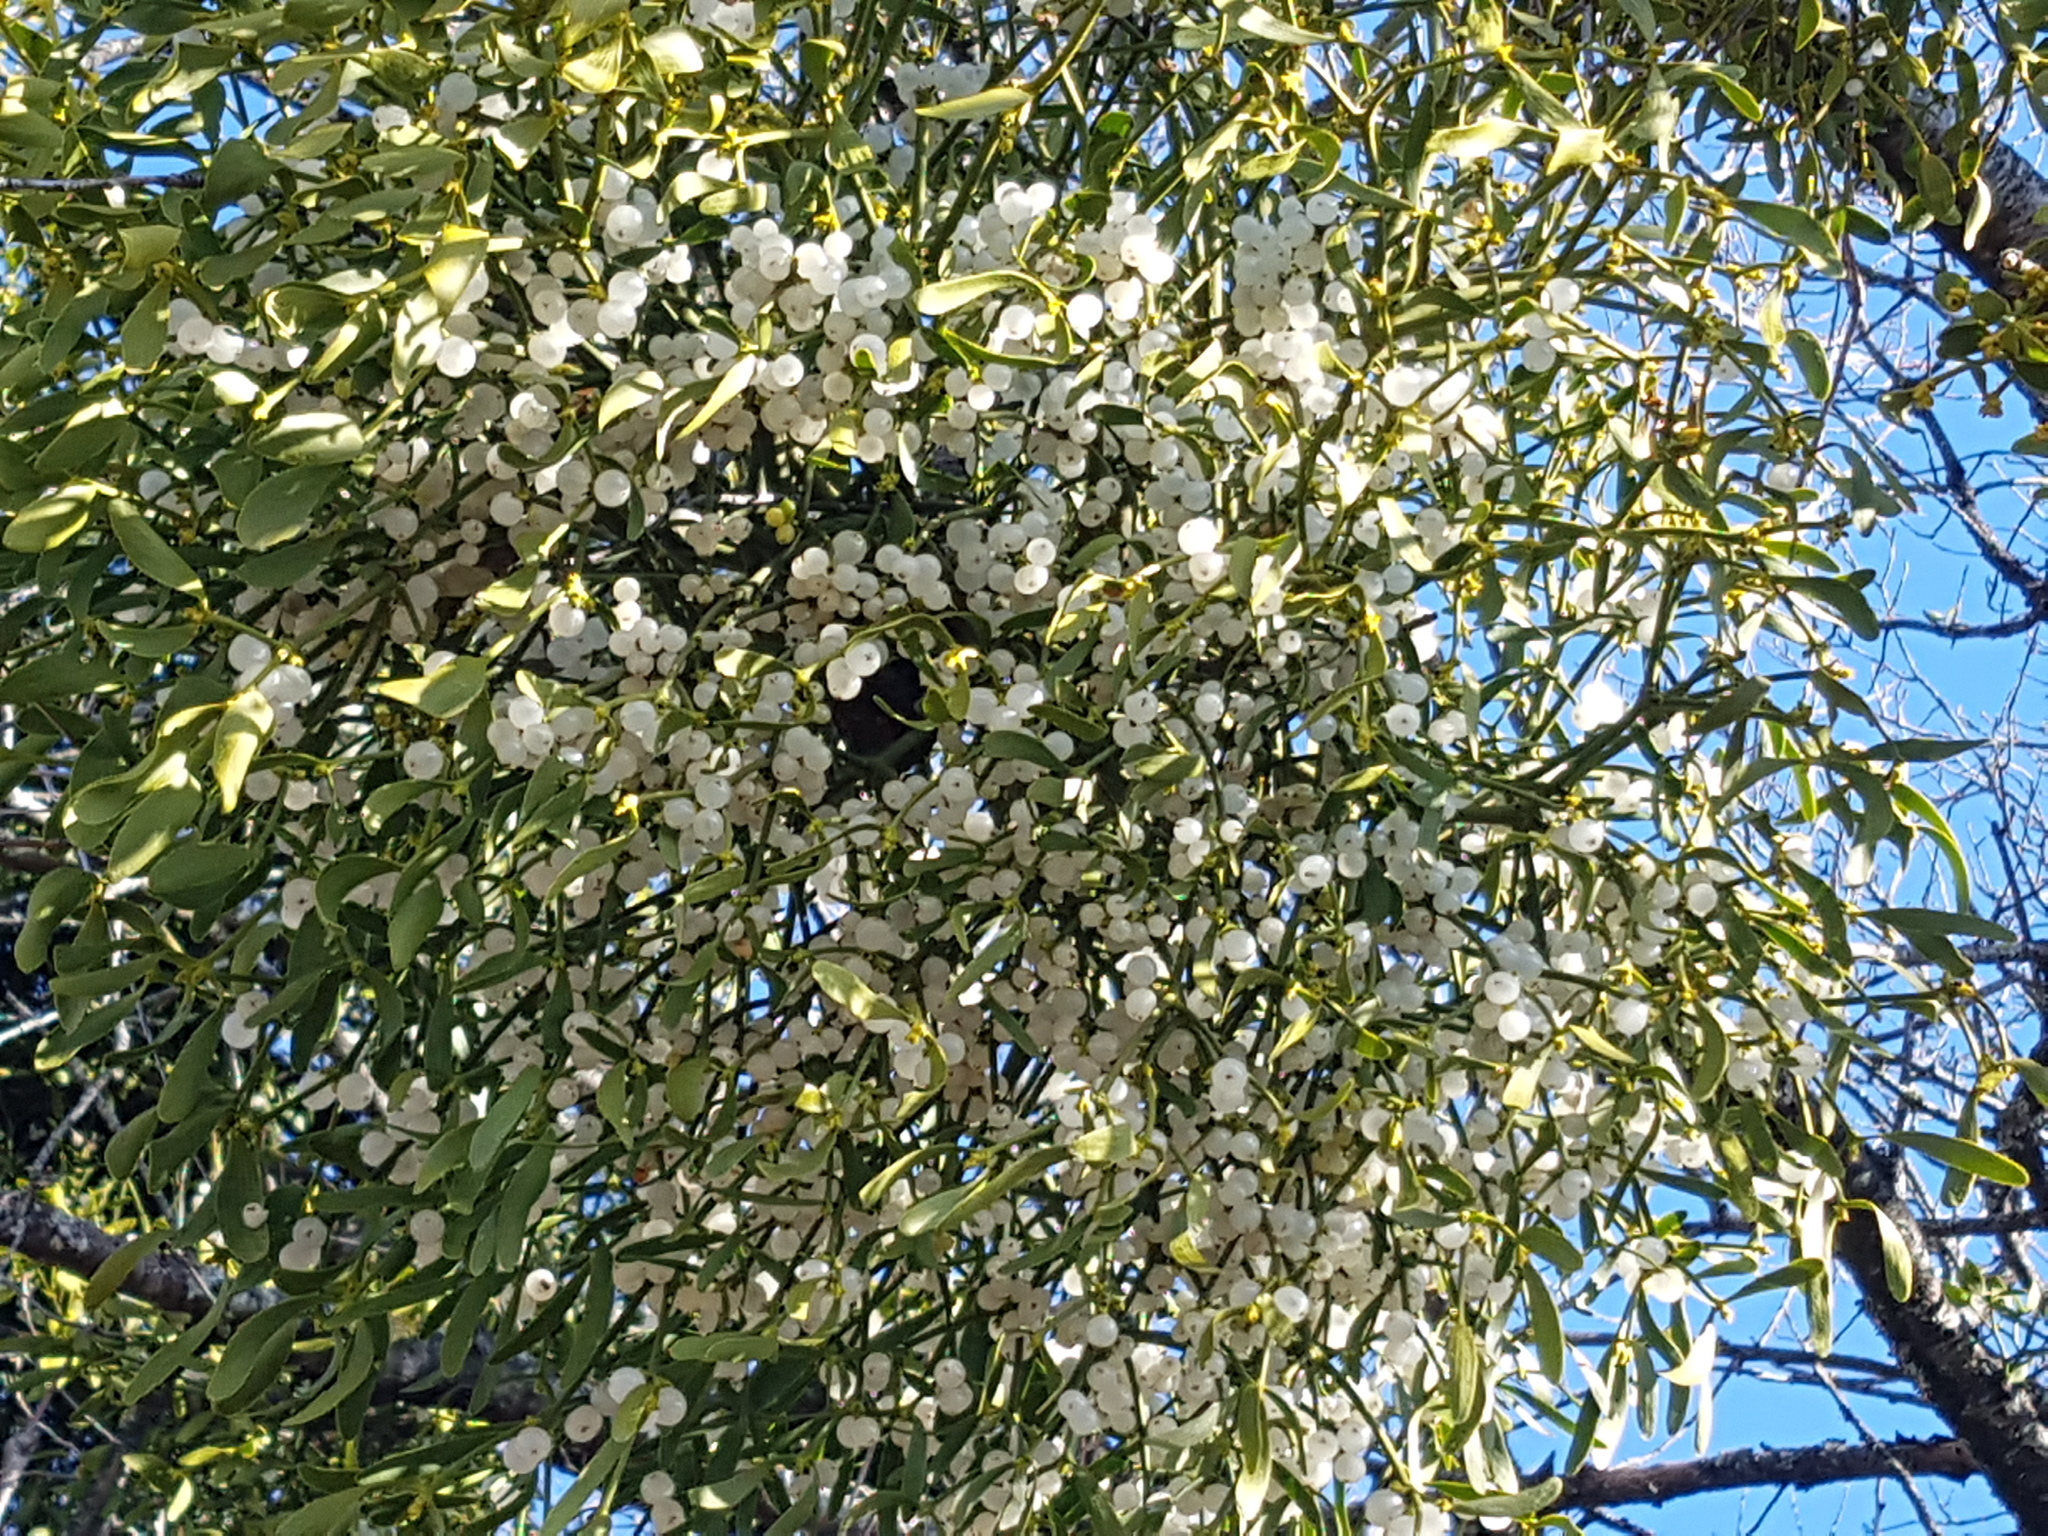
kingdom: Plantae
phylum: Tracheophyta
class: Magnoliopsida
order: Santalales
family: Viscaceae
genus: Viscum
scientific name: Viscum album
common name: Mistletoe
